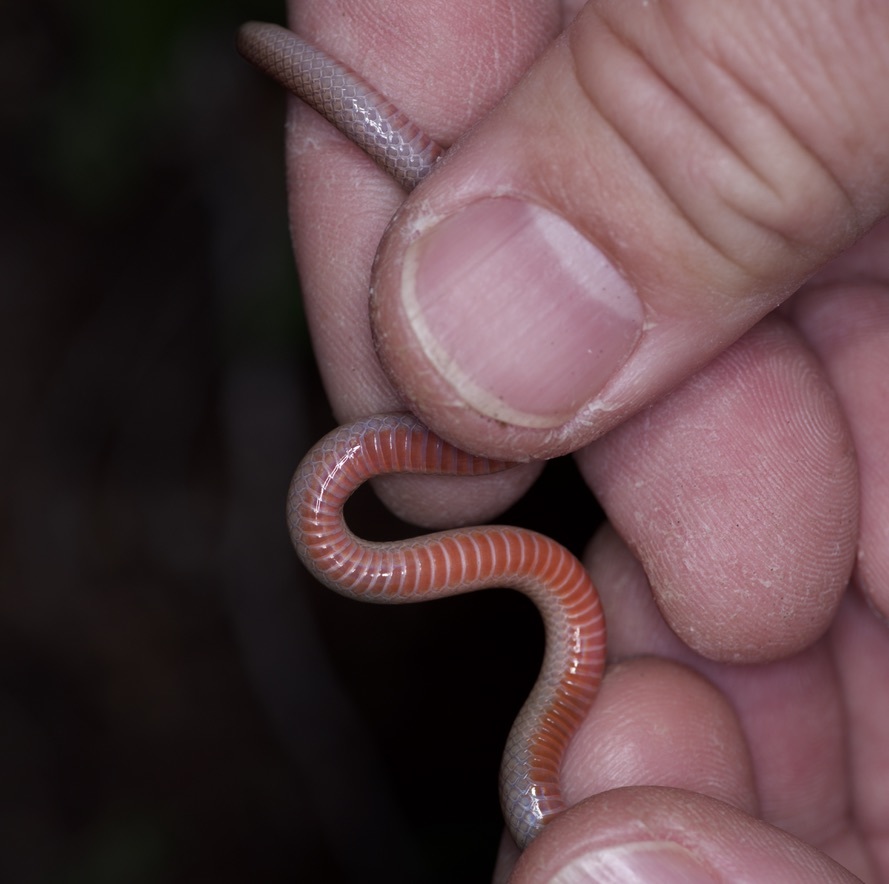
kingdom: Animalia
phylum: Chordata
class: Squamata
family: Colubridae
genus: Tantilla
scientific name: Tantilla gracilis
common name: Flathead snake
